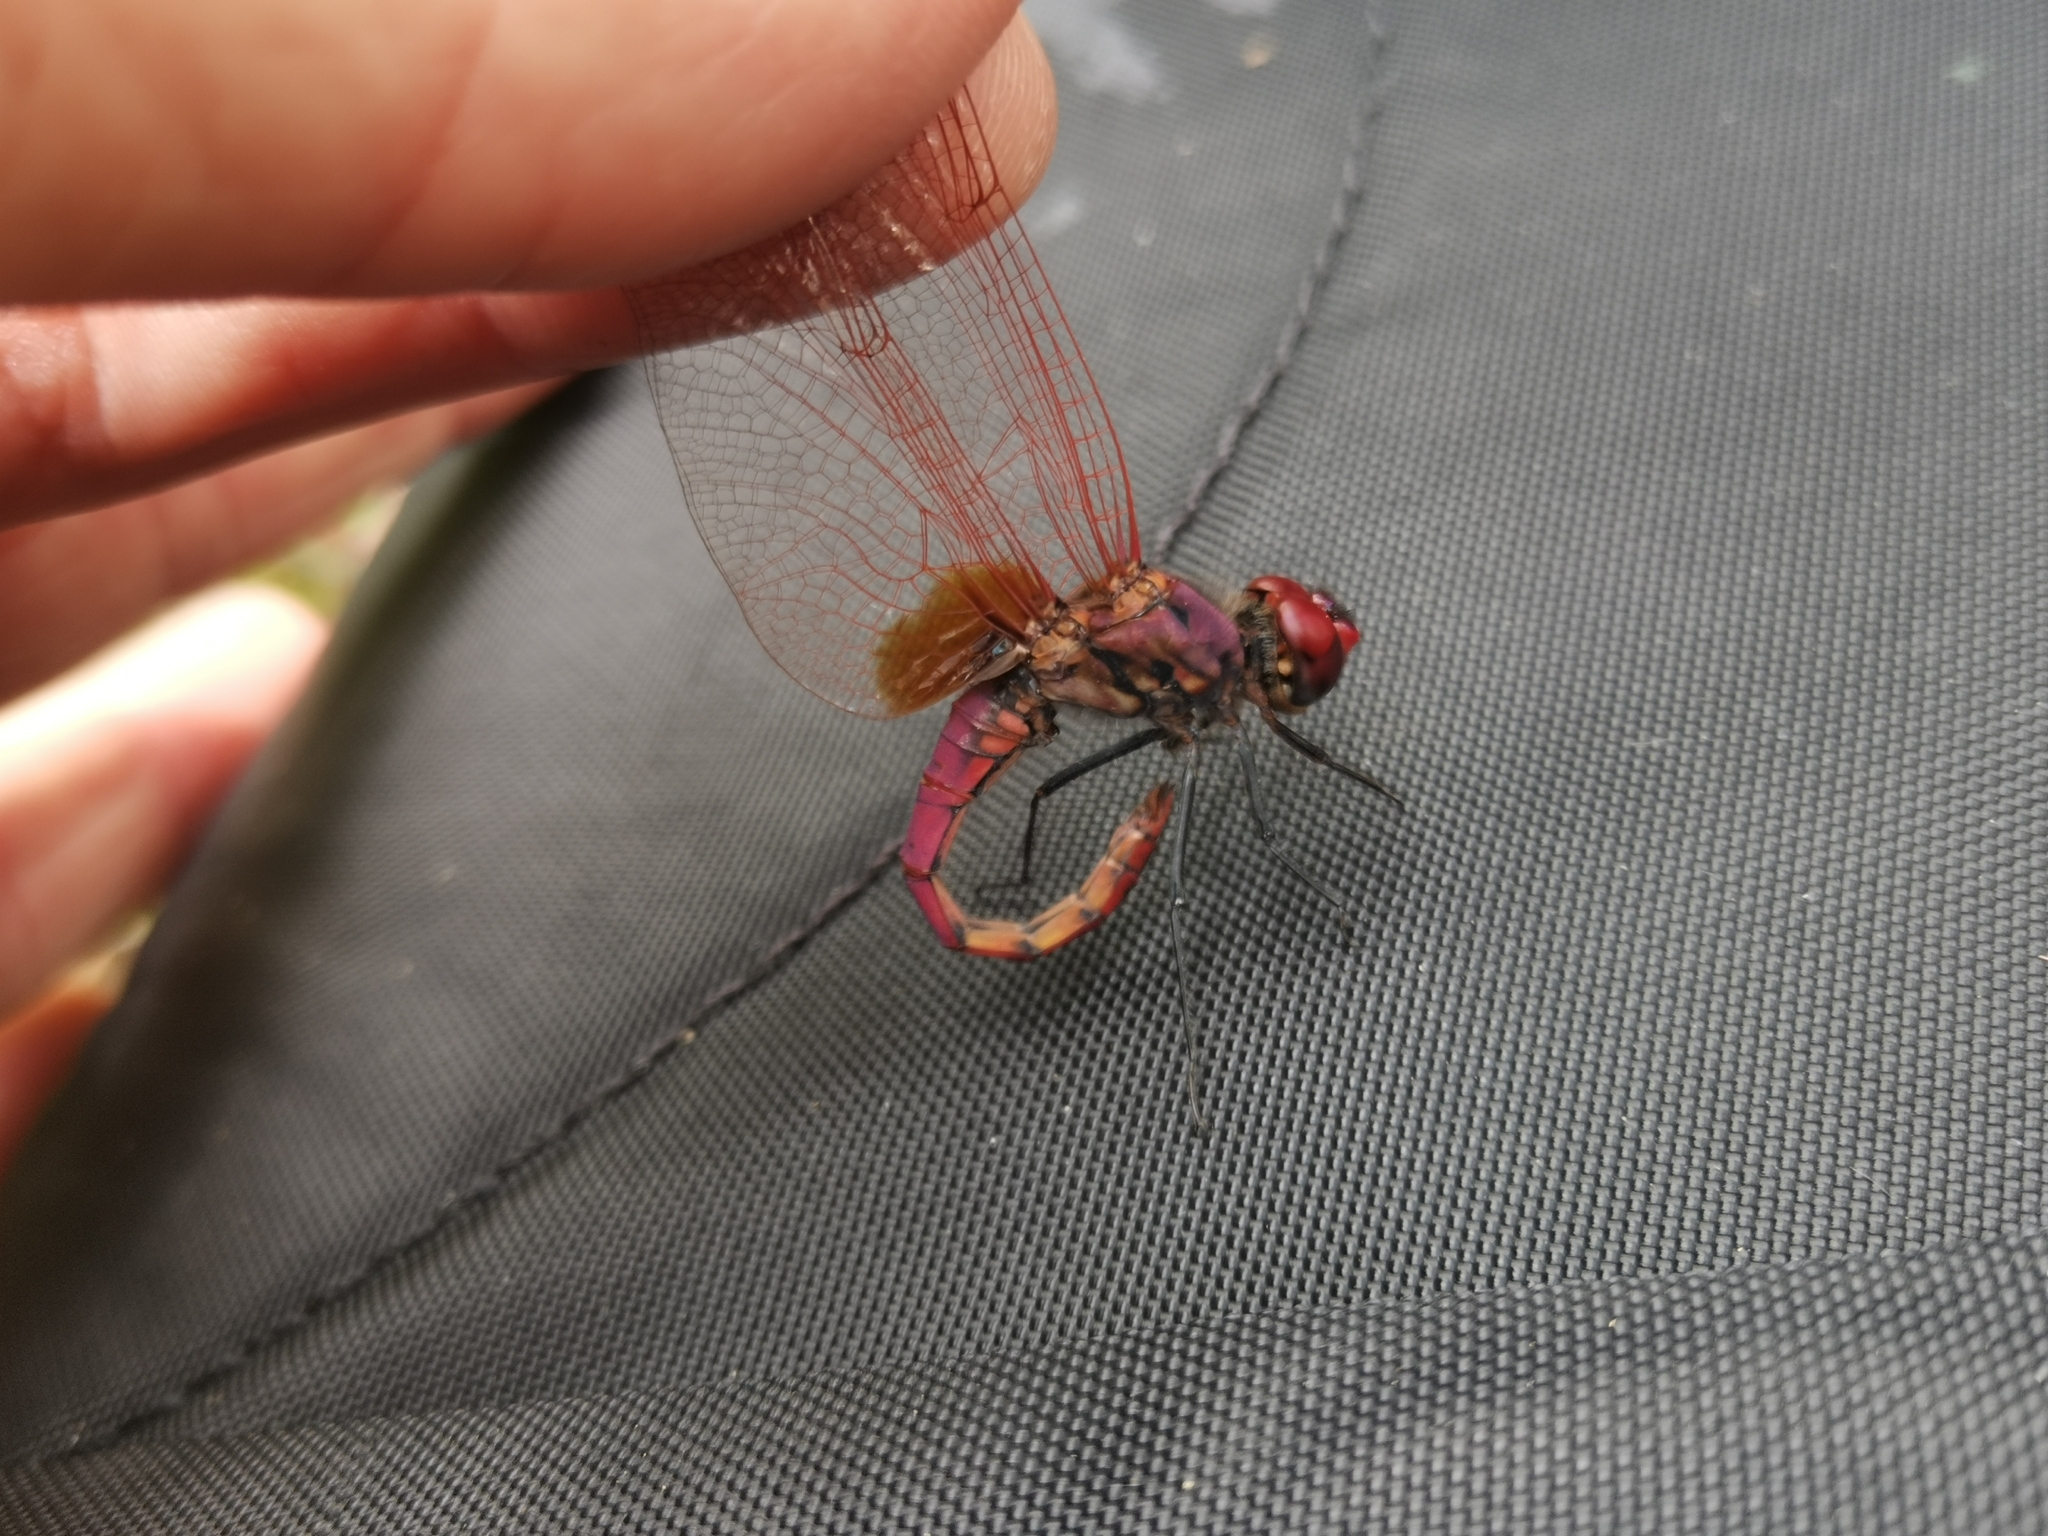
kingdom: Animalia
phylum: Arthropoda
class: Insecta
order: Odonata
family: Libellulidae
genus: Trithemis
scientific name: Trithemis annulata
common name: Violet dropwing
